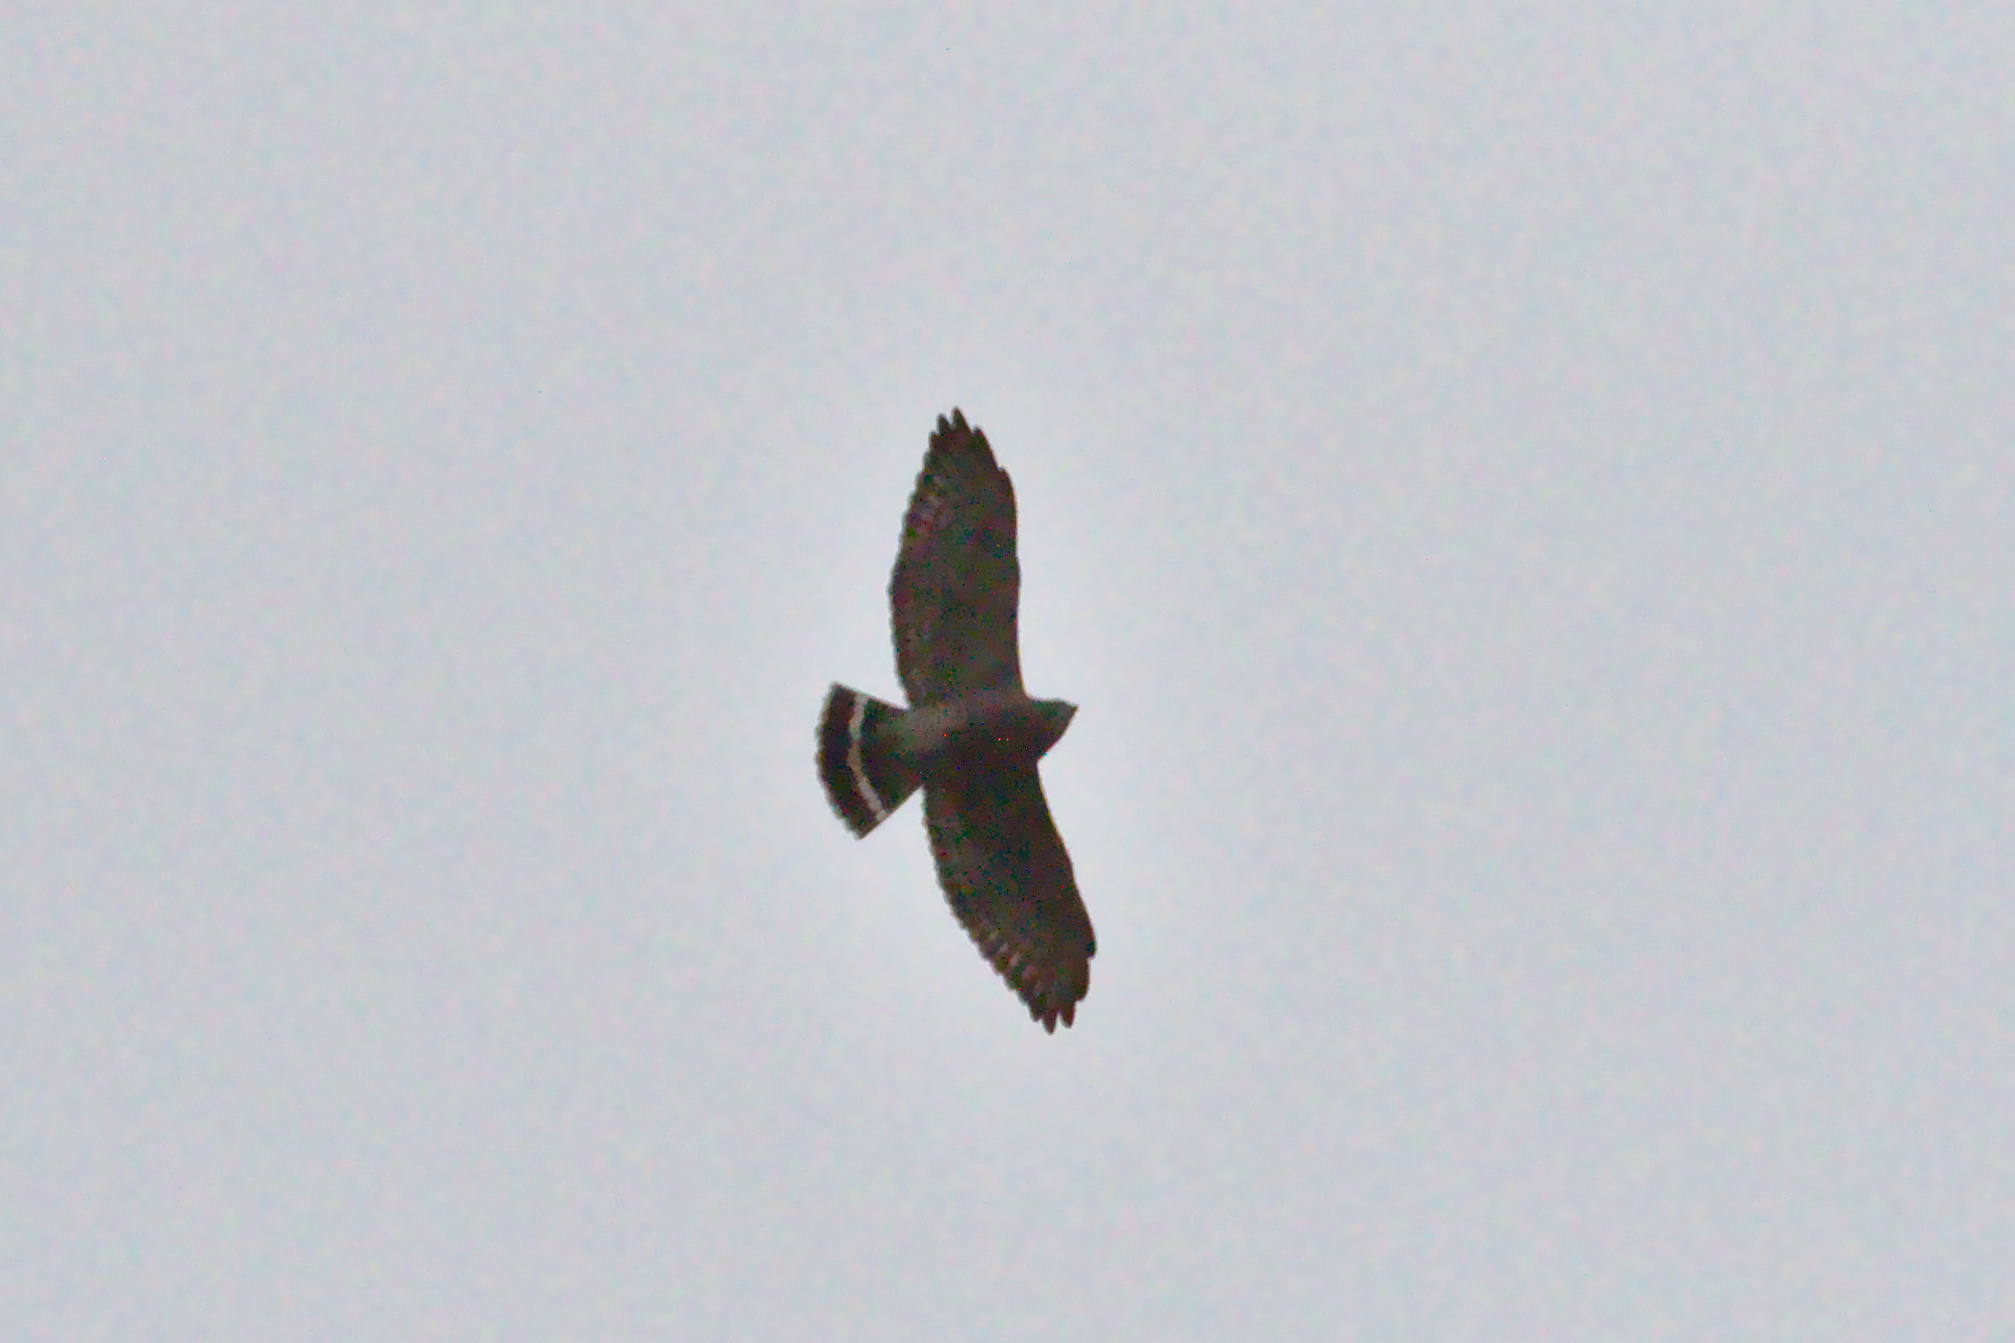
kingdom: Animalia
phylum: Chordata
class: Aves
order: Accipitriformes
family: Accipitridae
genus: Buteo
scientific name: Buteo platypterus
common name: Broad-winged hawk
